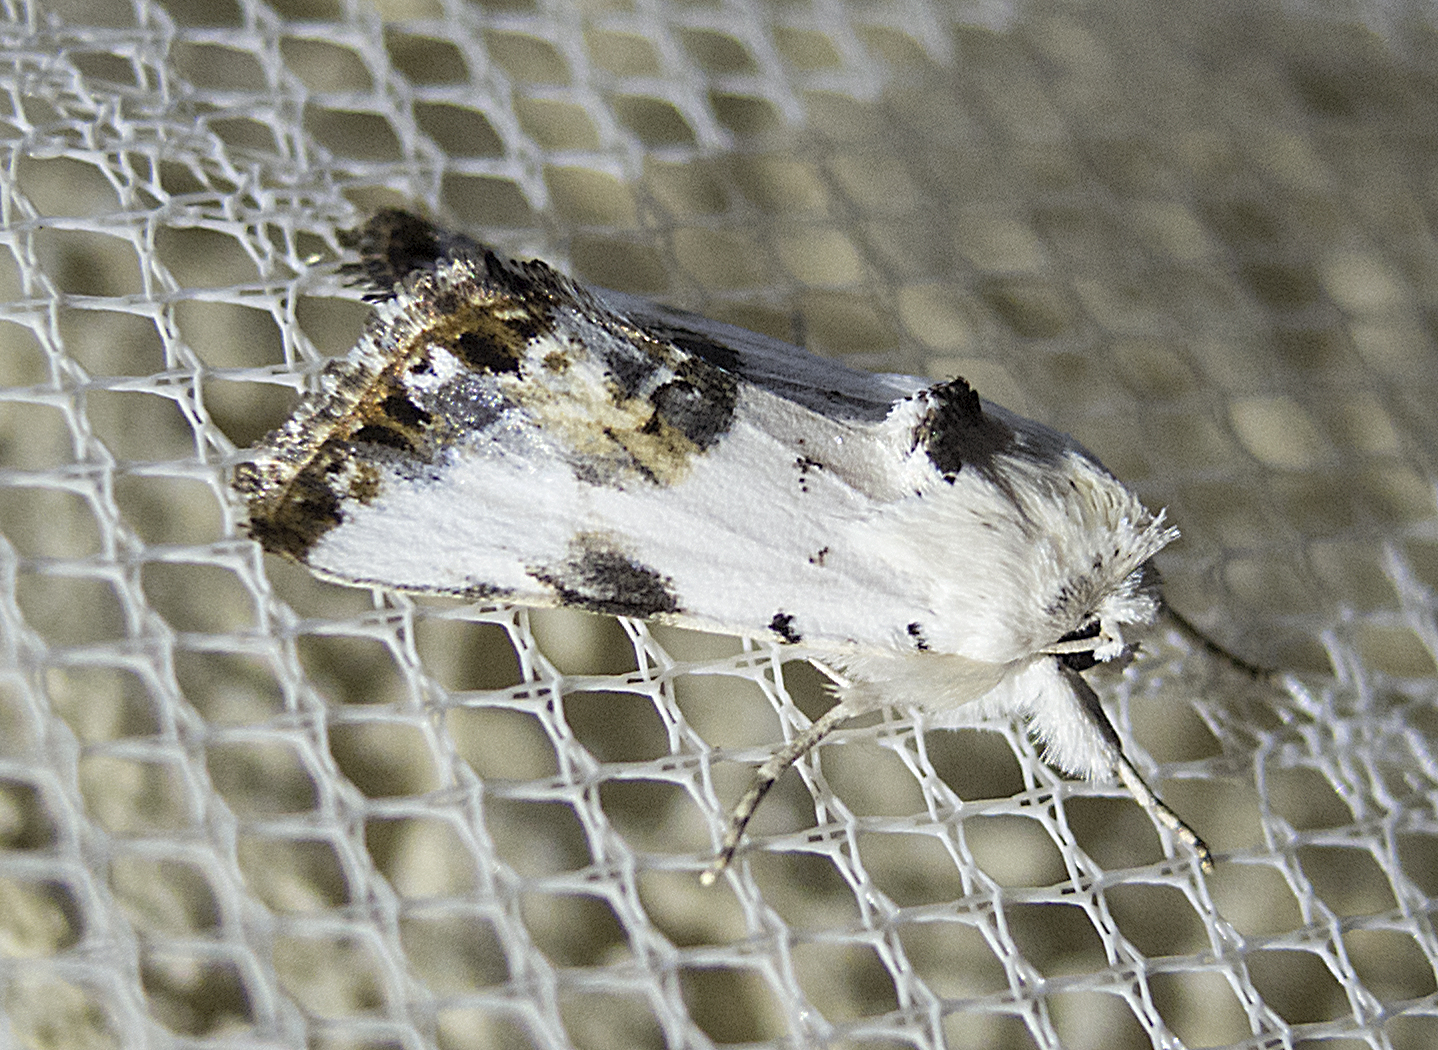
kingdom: Animalia
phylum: Arthropoda
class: Insecta
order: Lepidoptera
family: Noctuidae
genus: Calophasia
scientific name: Calophasia opalina
